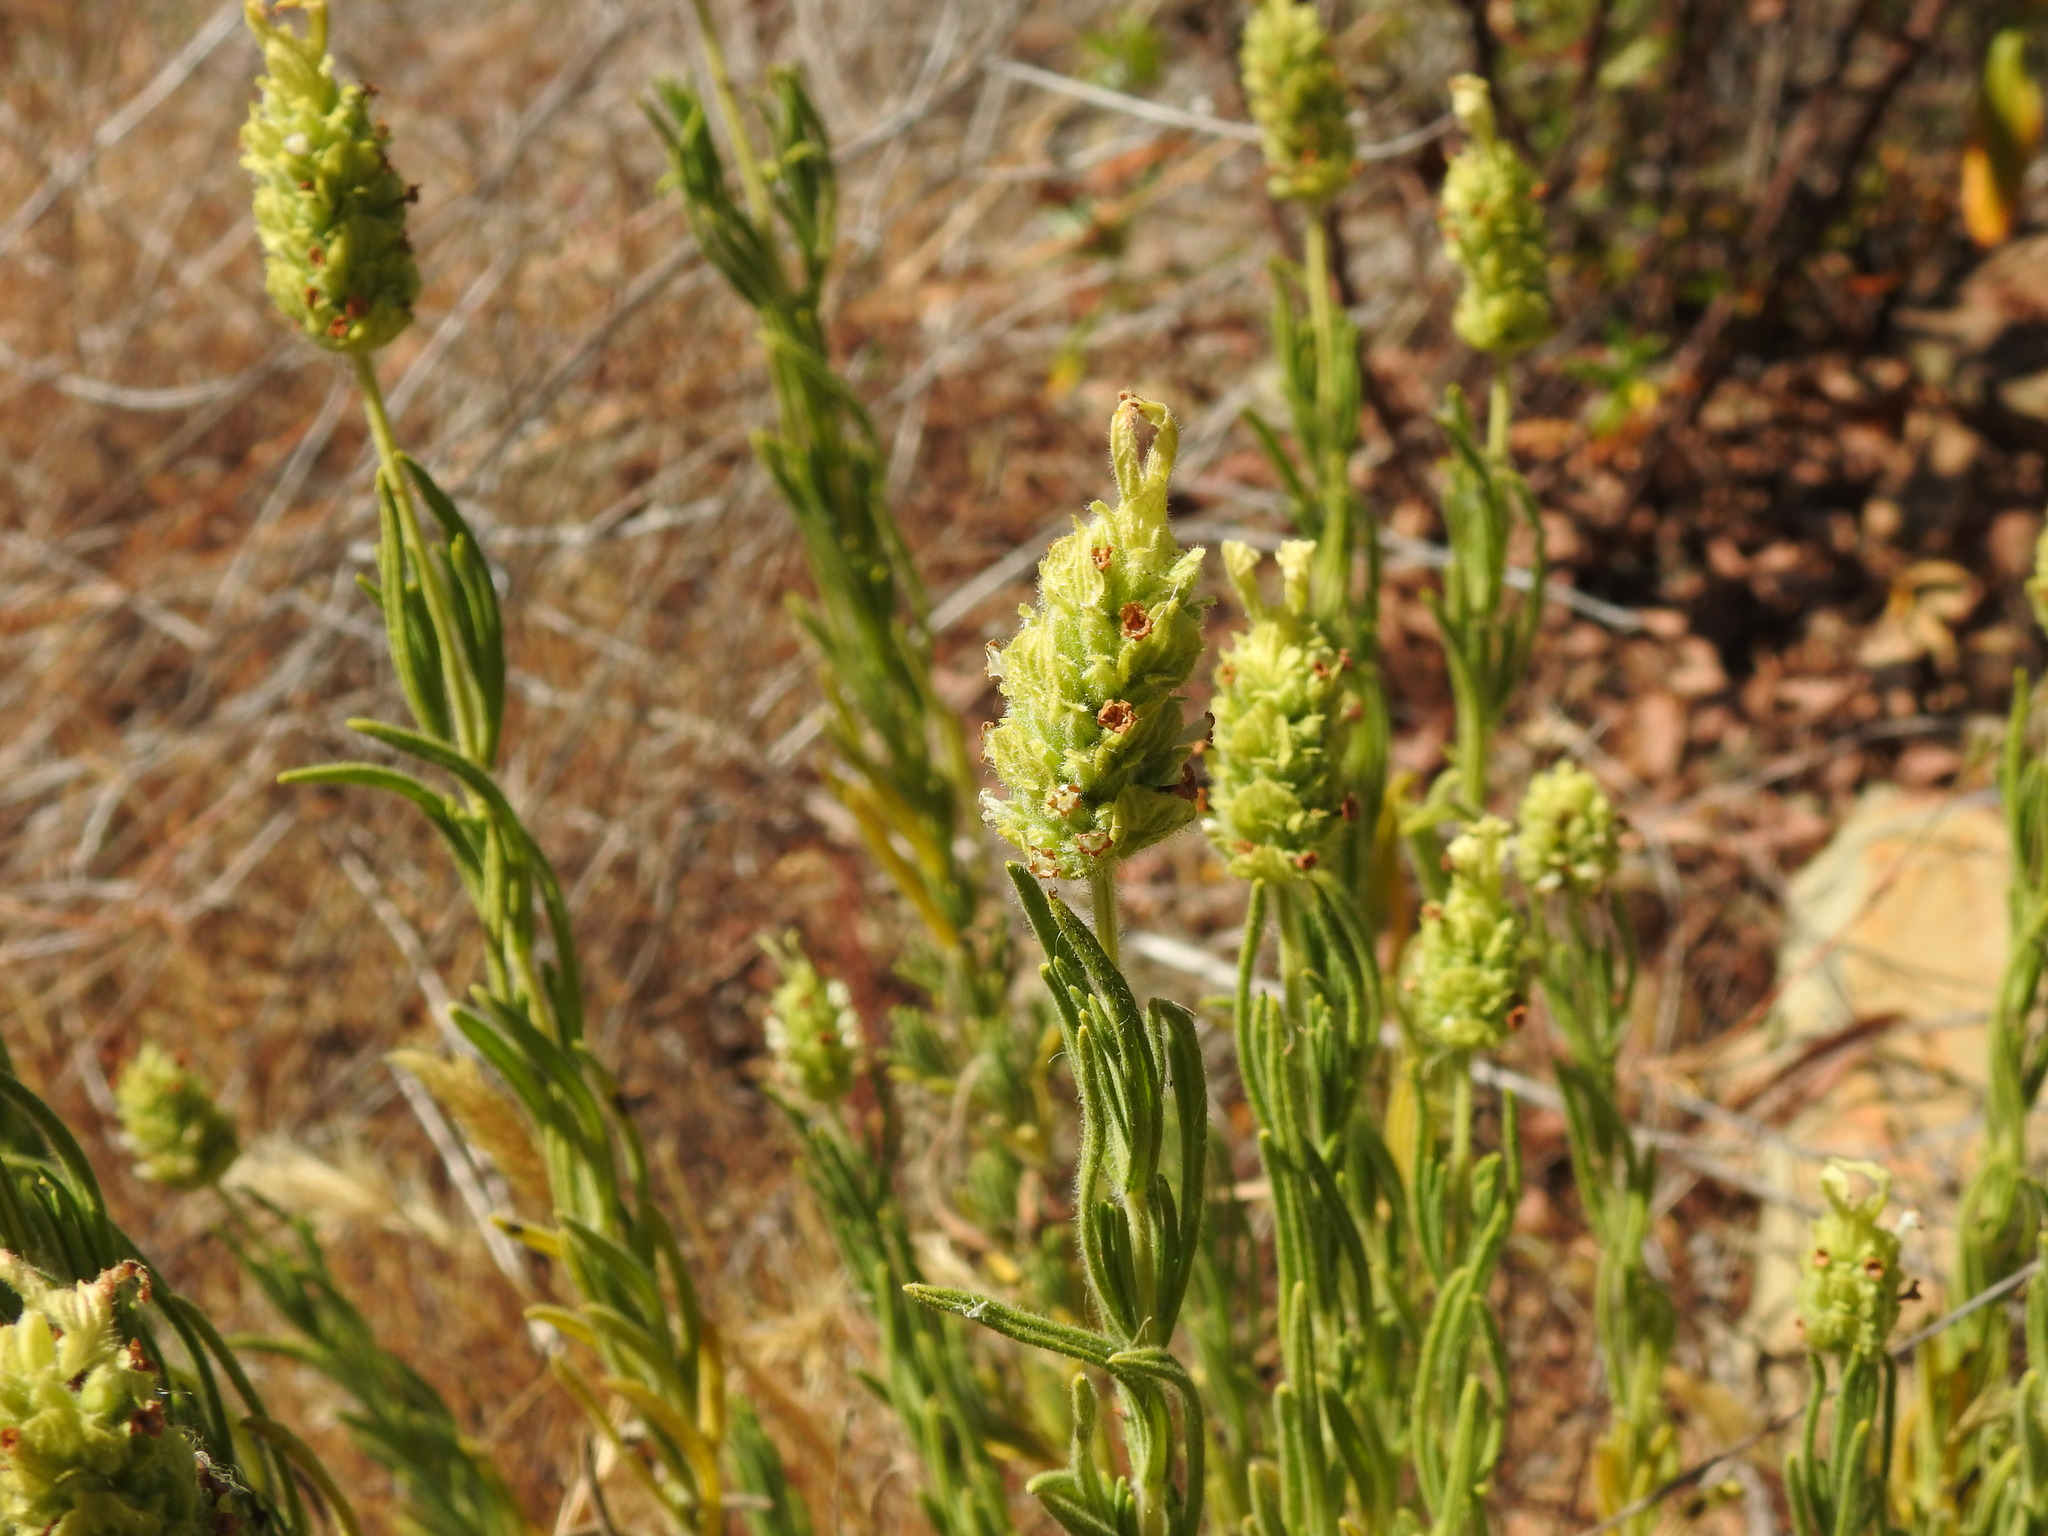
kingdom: Plantae
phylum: Tracheophyta
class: Magnoliopsida
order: Lamiales
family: Lamiaceae
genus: Lavandula
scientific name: Lavandula viridis
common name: Green spanish lavender
